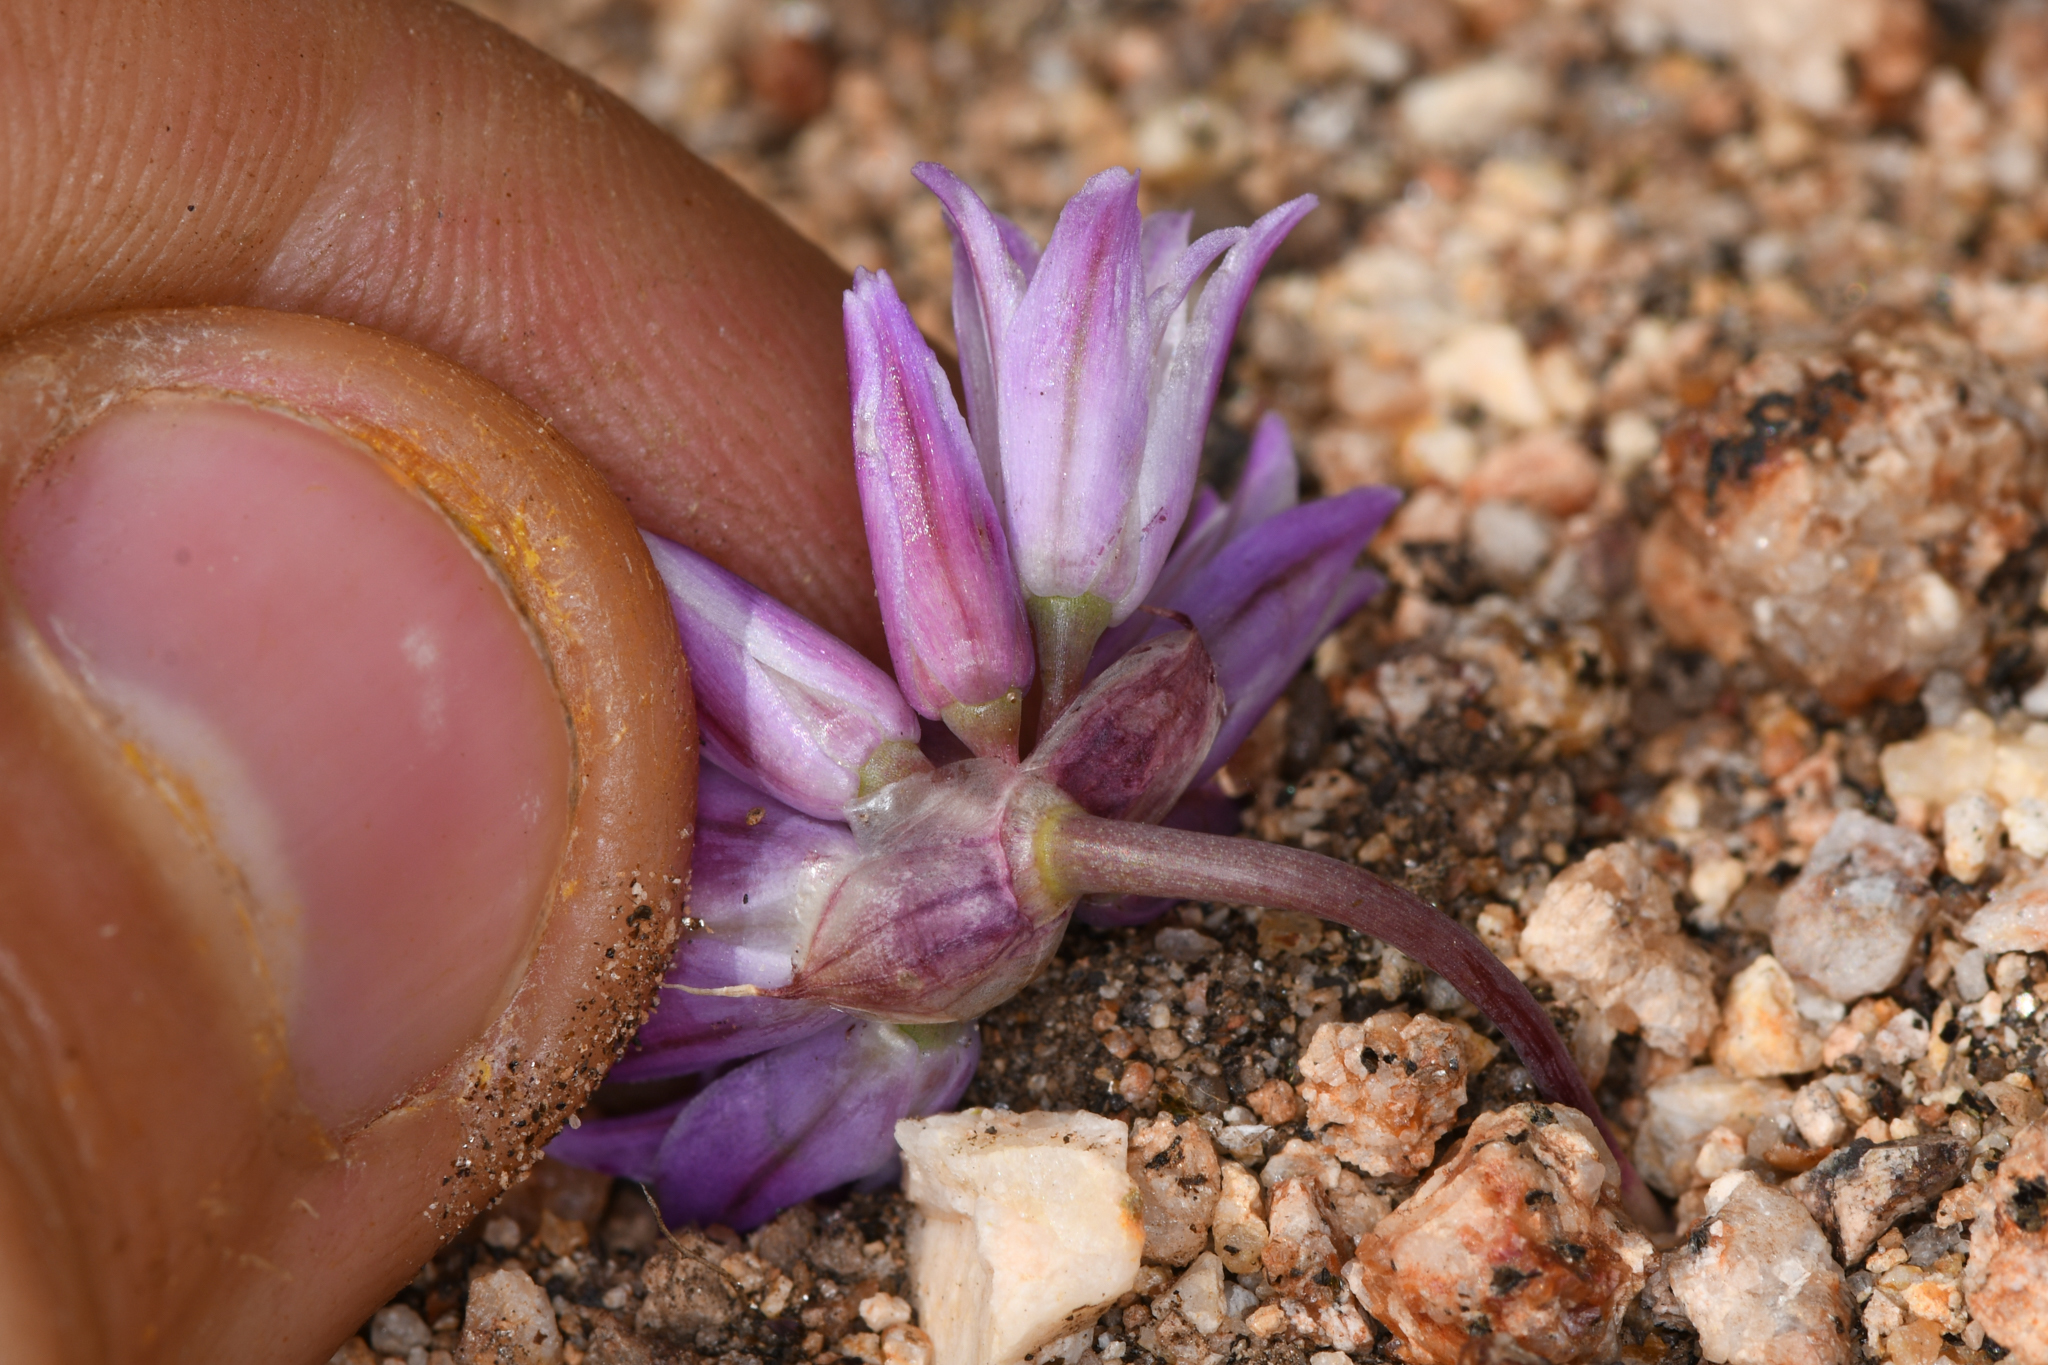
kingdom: Plantae
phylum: Tracheophyta
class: Liliopsida
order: Asparagales
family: Amaryllidaceae
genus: Allium
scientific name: Allium fimbriatum
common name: Fringed onion
